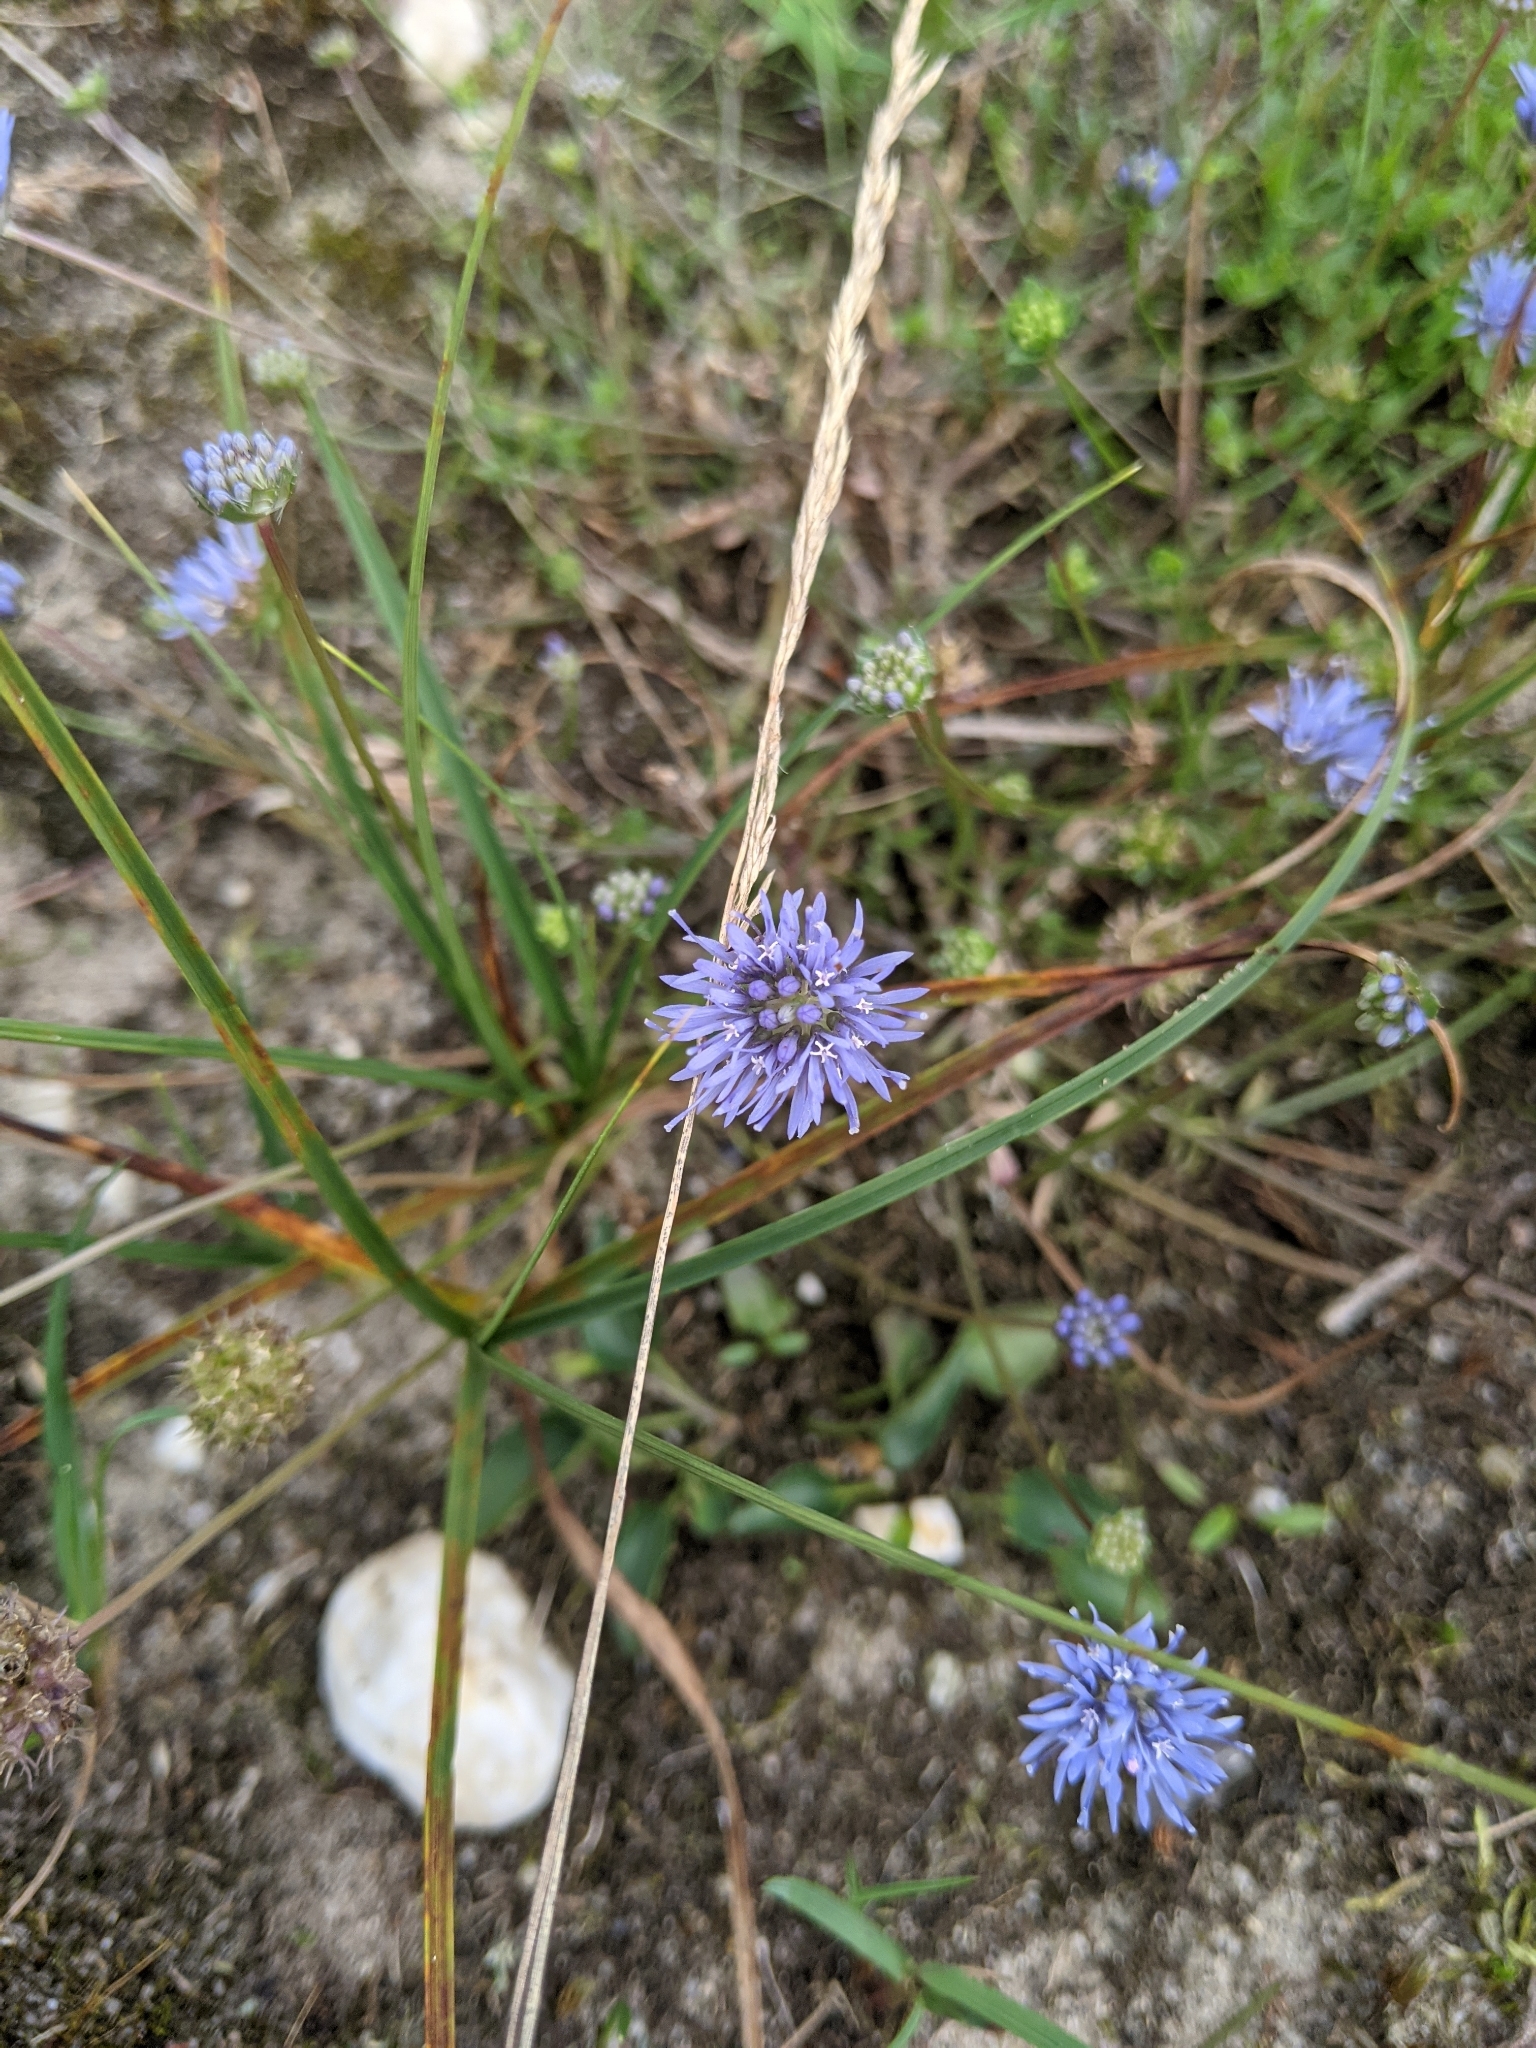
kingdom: Plantae
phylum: Tracheophyta
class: Magnoliopsida
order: Asterales
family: Campanulaceae
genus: Jasione
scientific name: Jasione montana
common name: Sheep's-bit
